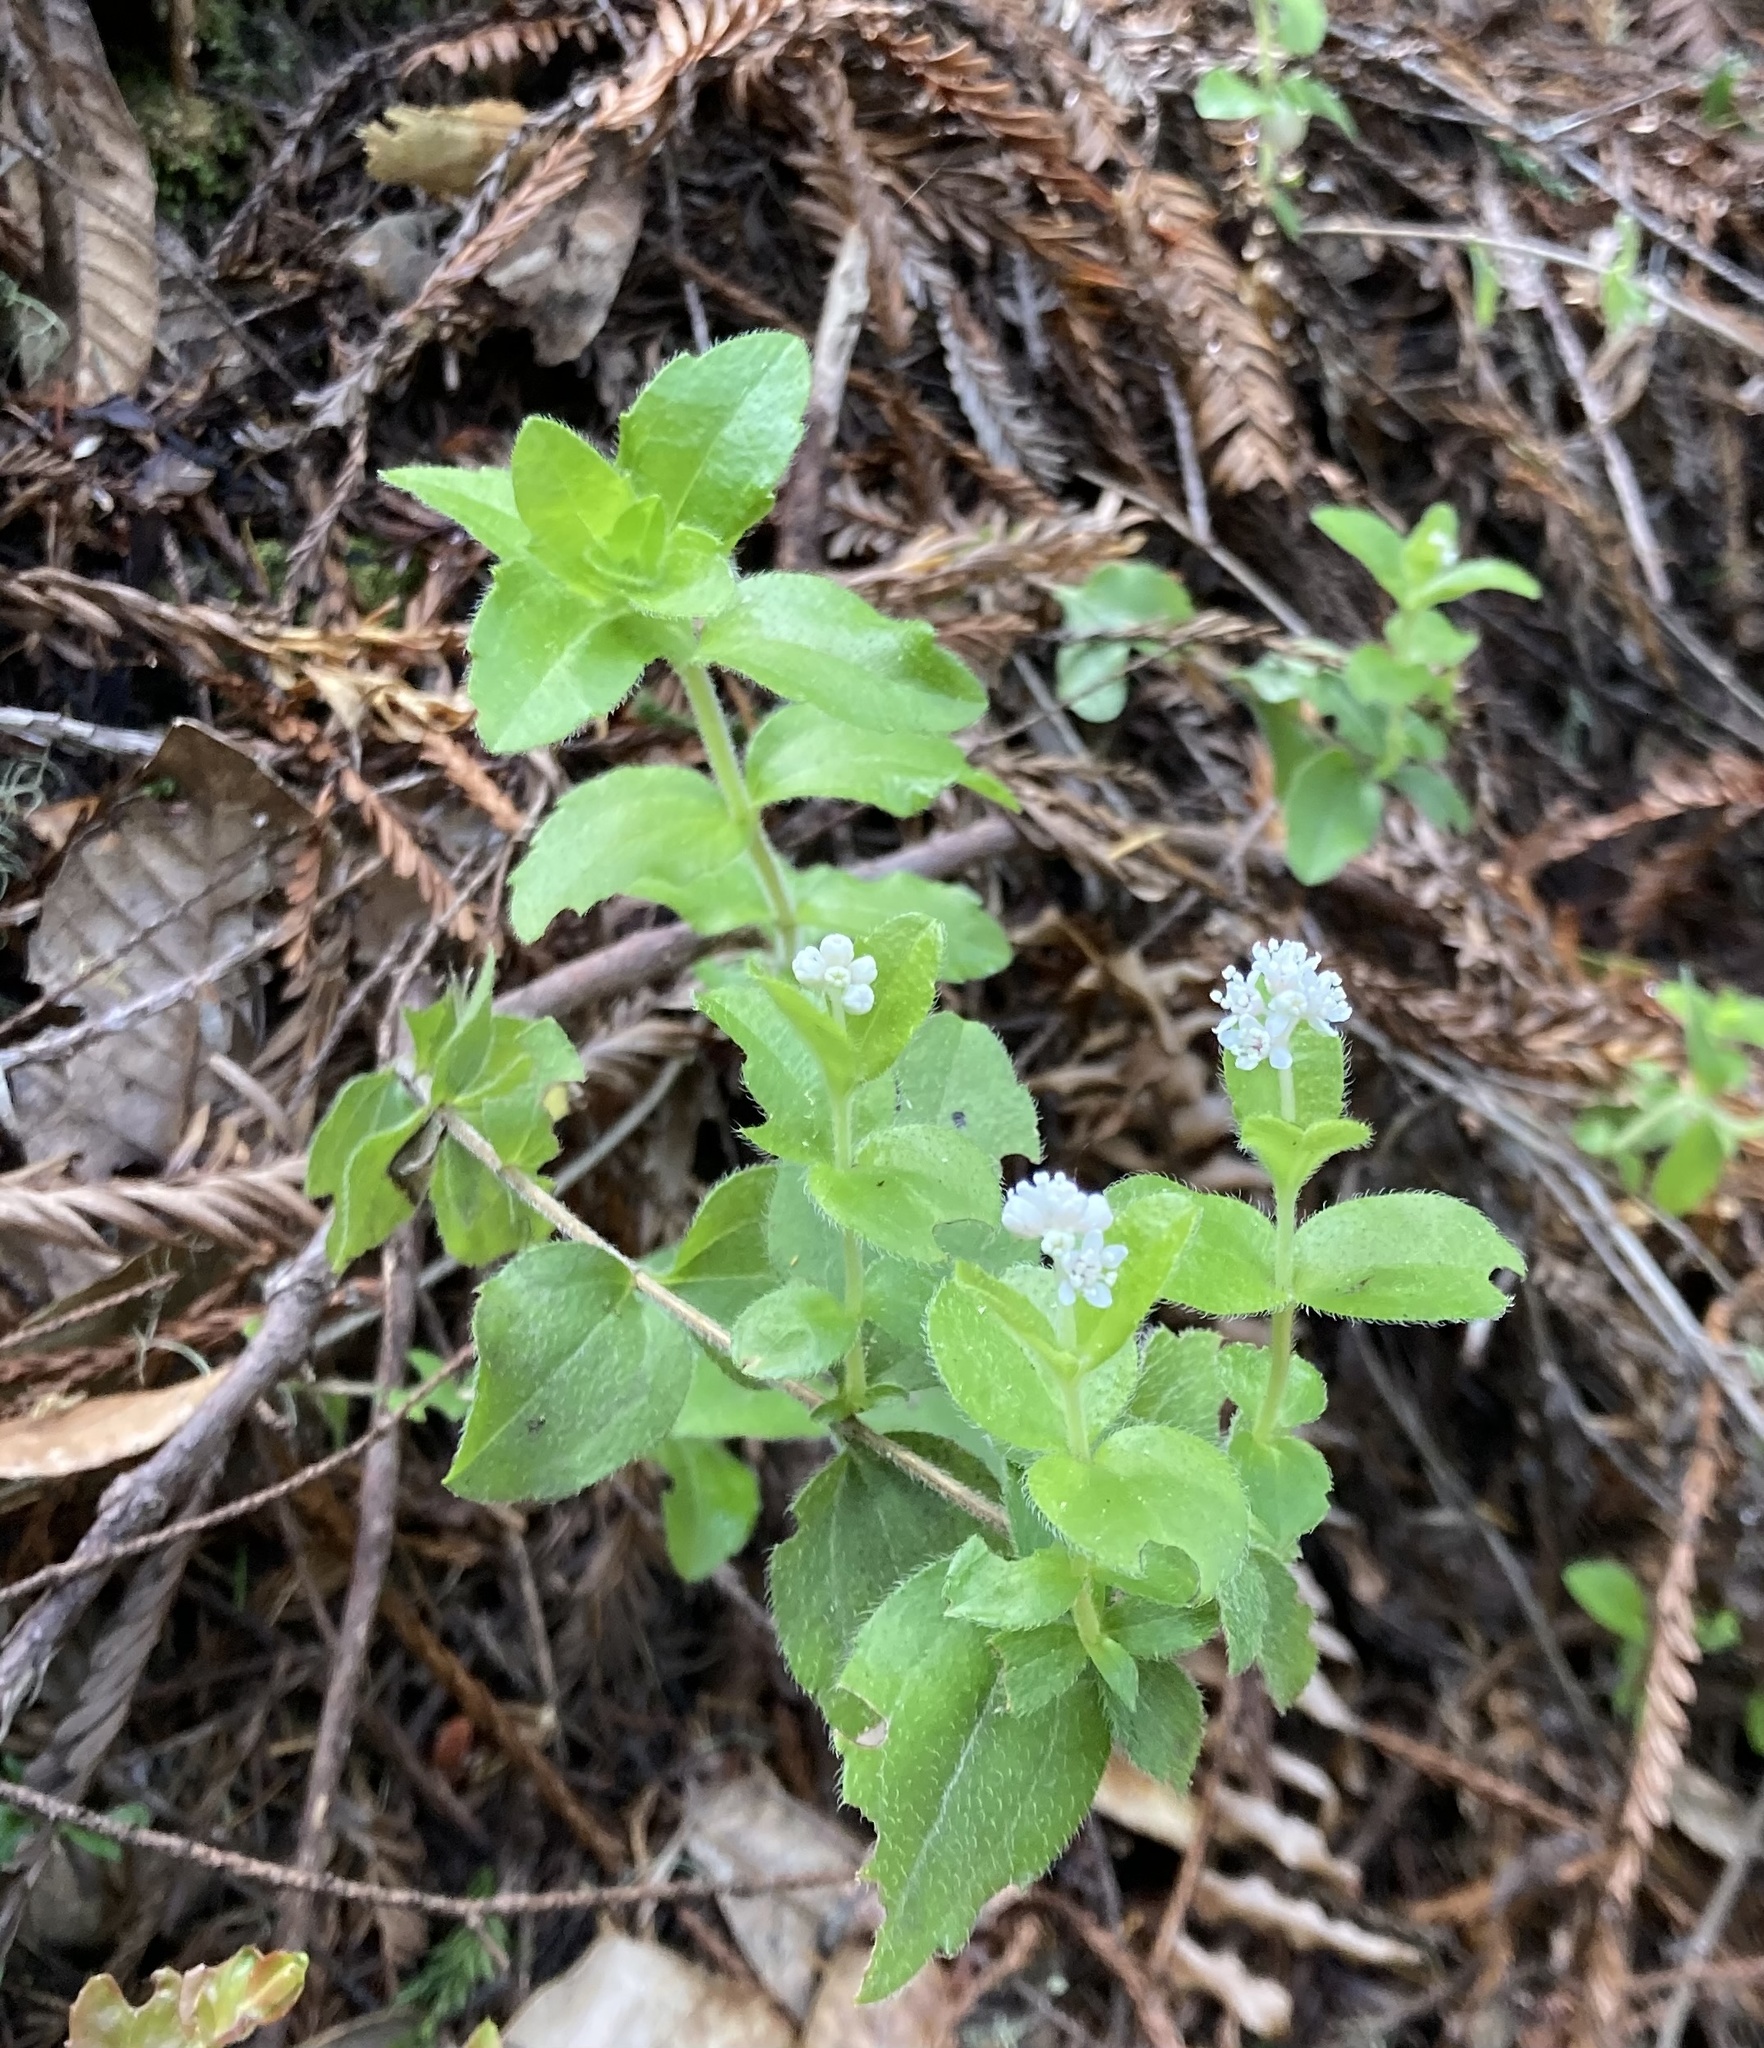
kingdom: Plantae
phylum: Tracheophyta
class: Magnoliopsida
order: Cornales
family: Hydrangeaceae
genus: Whipplea
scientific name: Whipplea modesta
